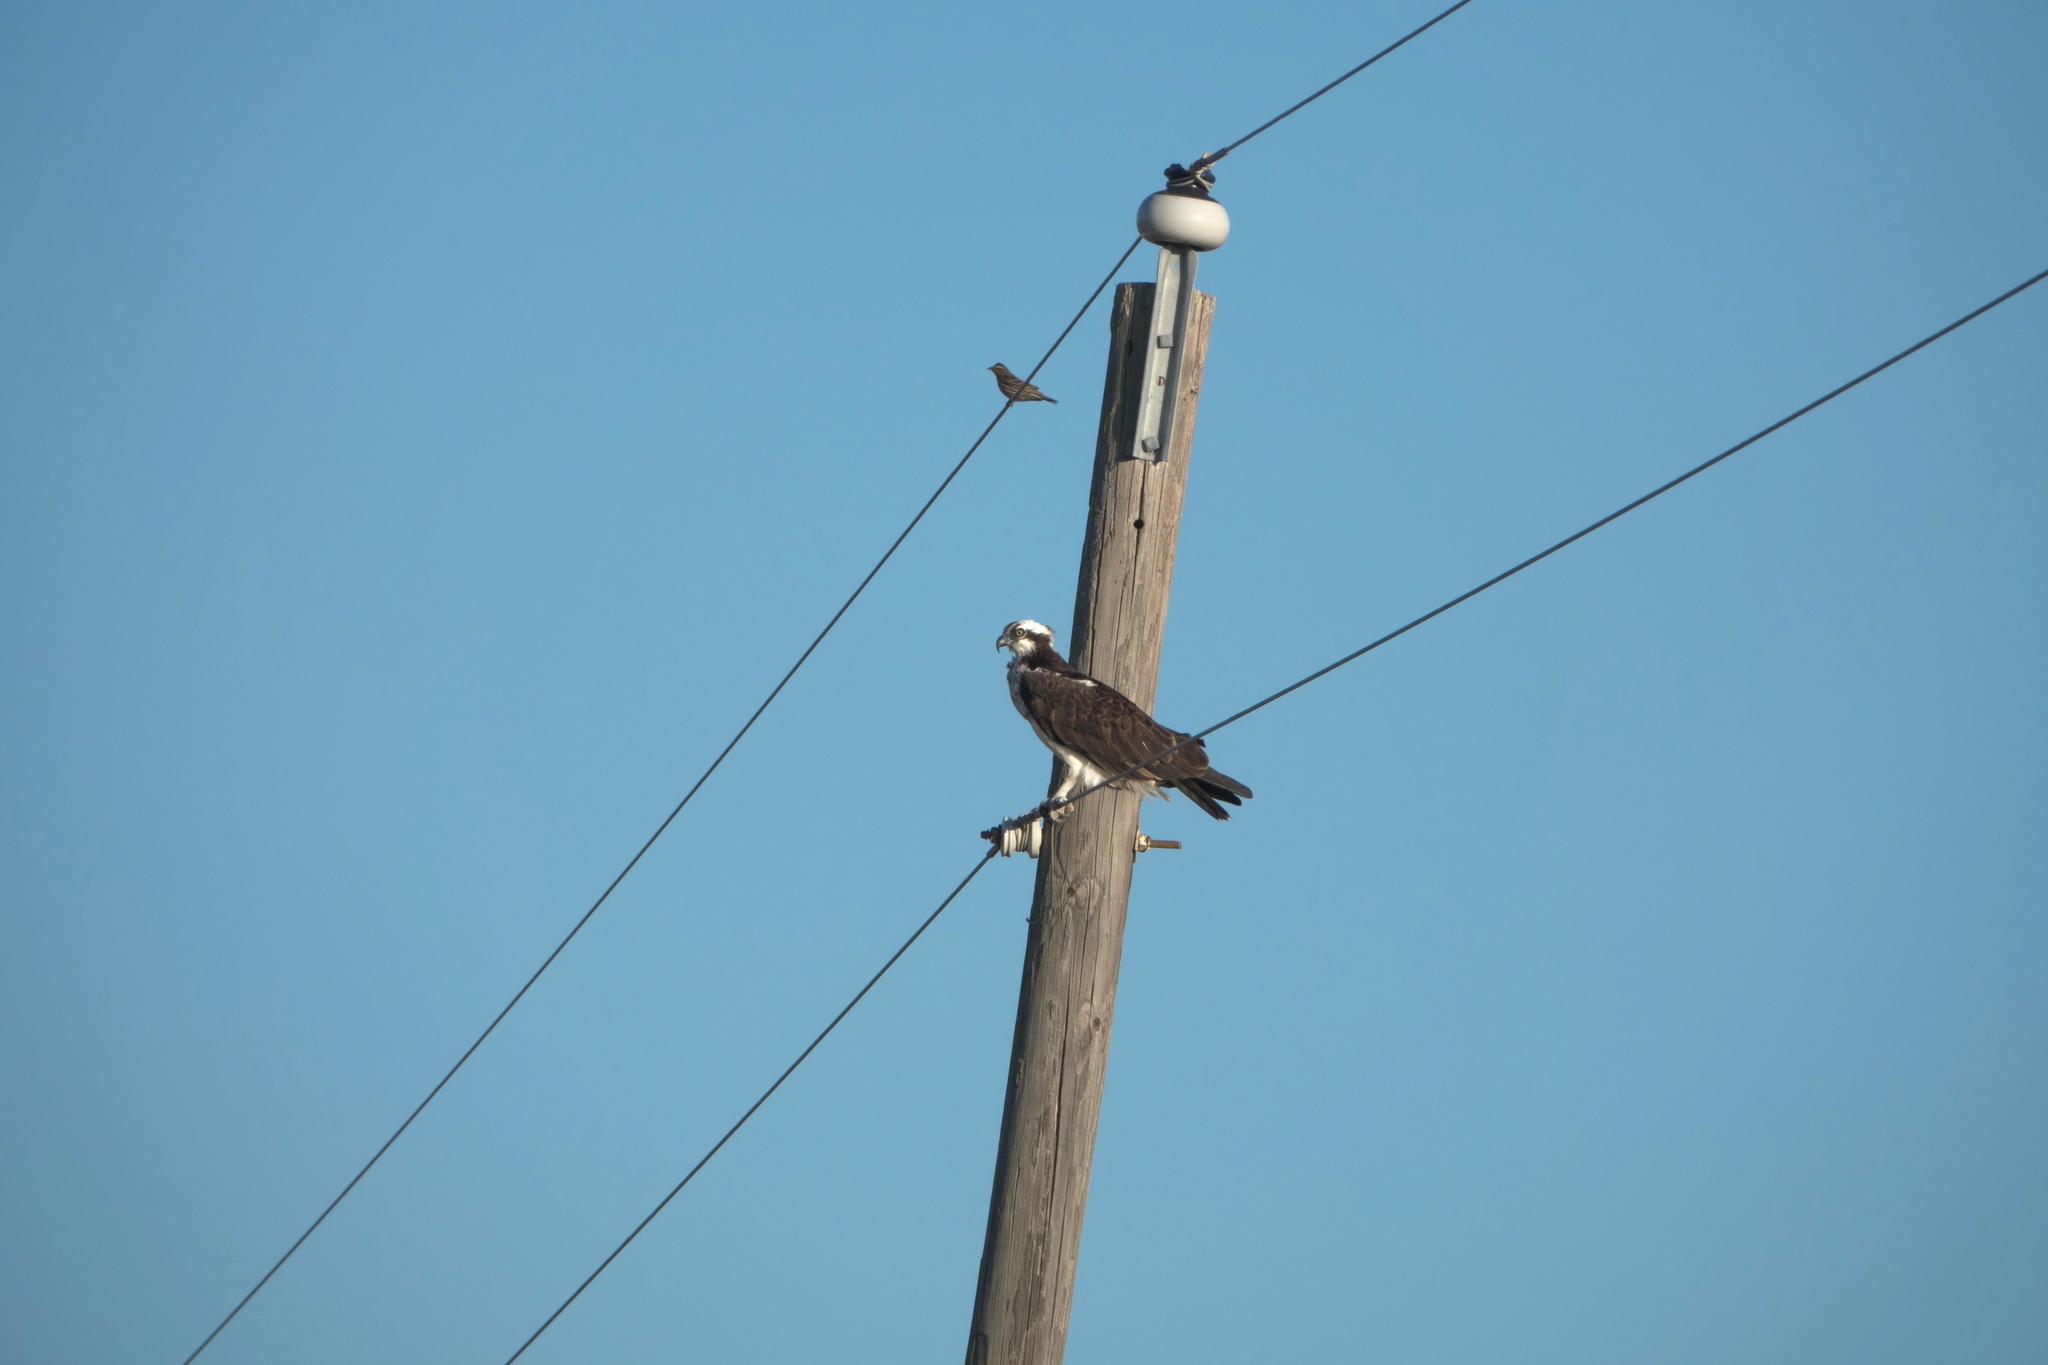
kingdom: Animalia
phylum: Chordata
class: Aves
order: Accipitriformes
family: Pandionidae
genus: Pandion
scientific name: Pandion haliaetus
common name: Osprey
